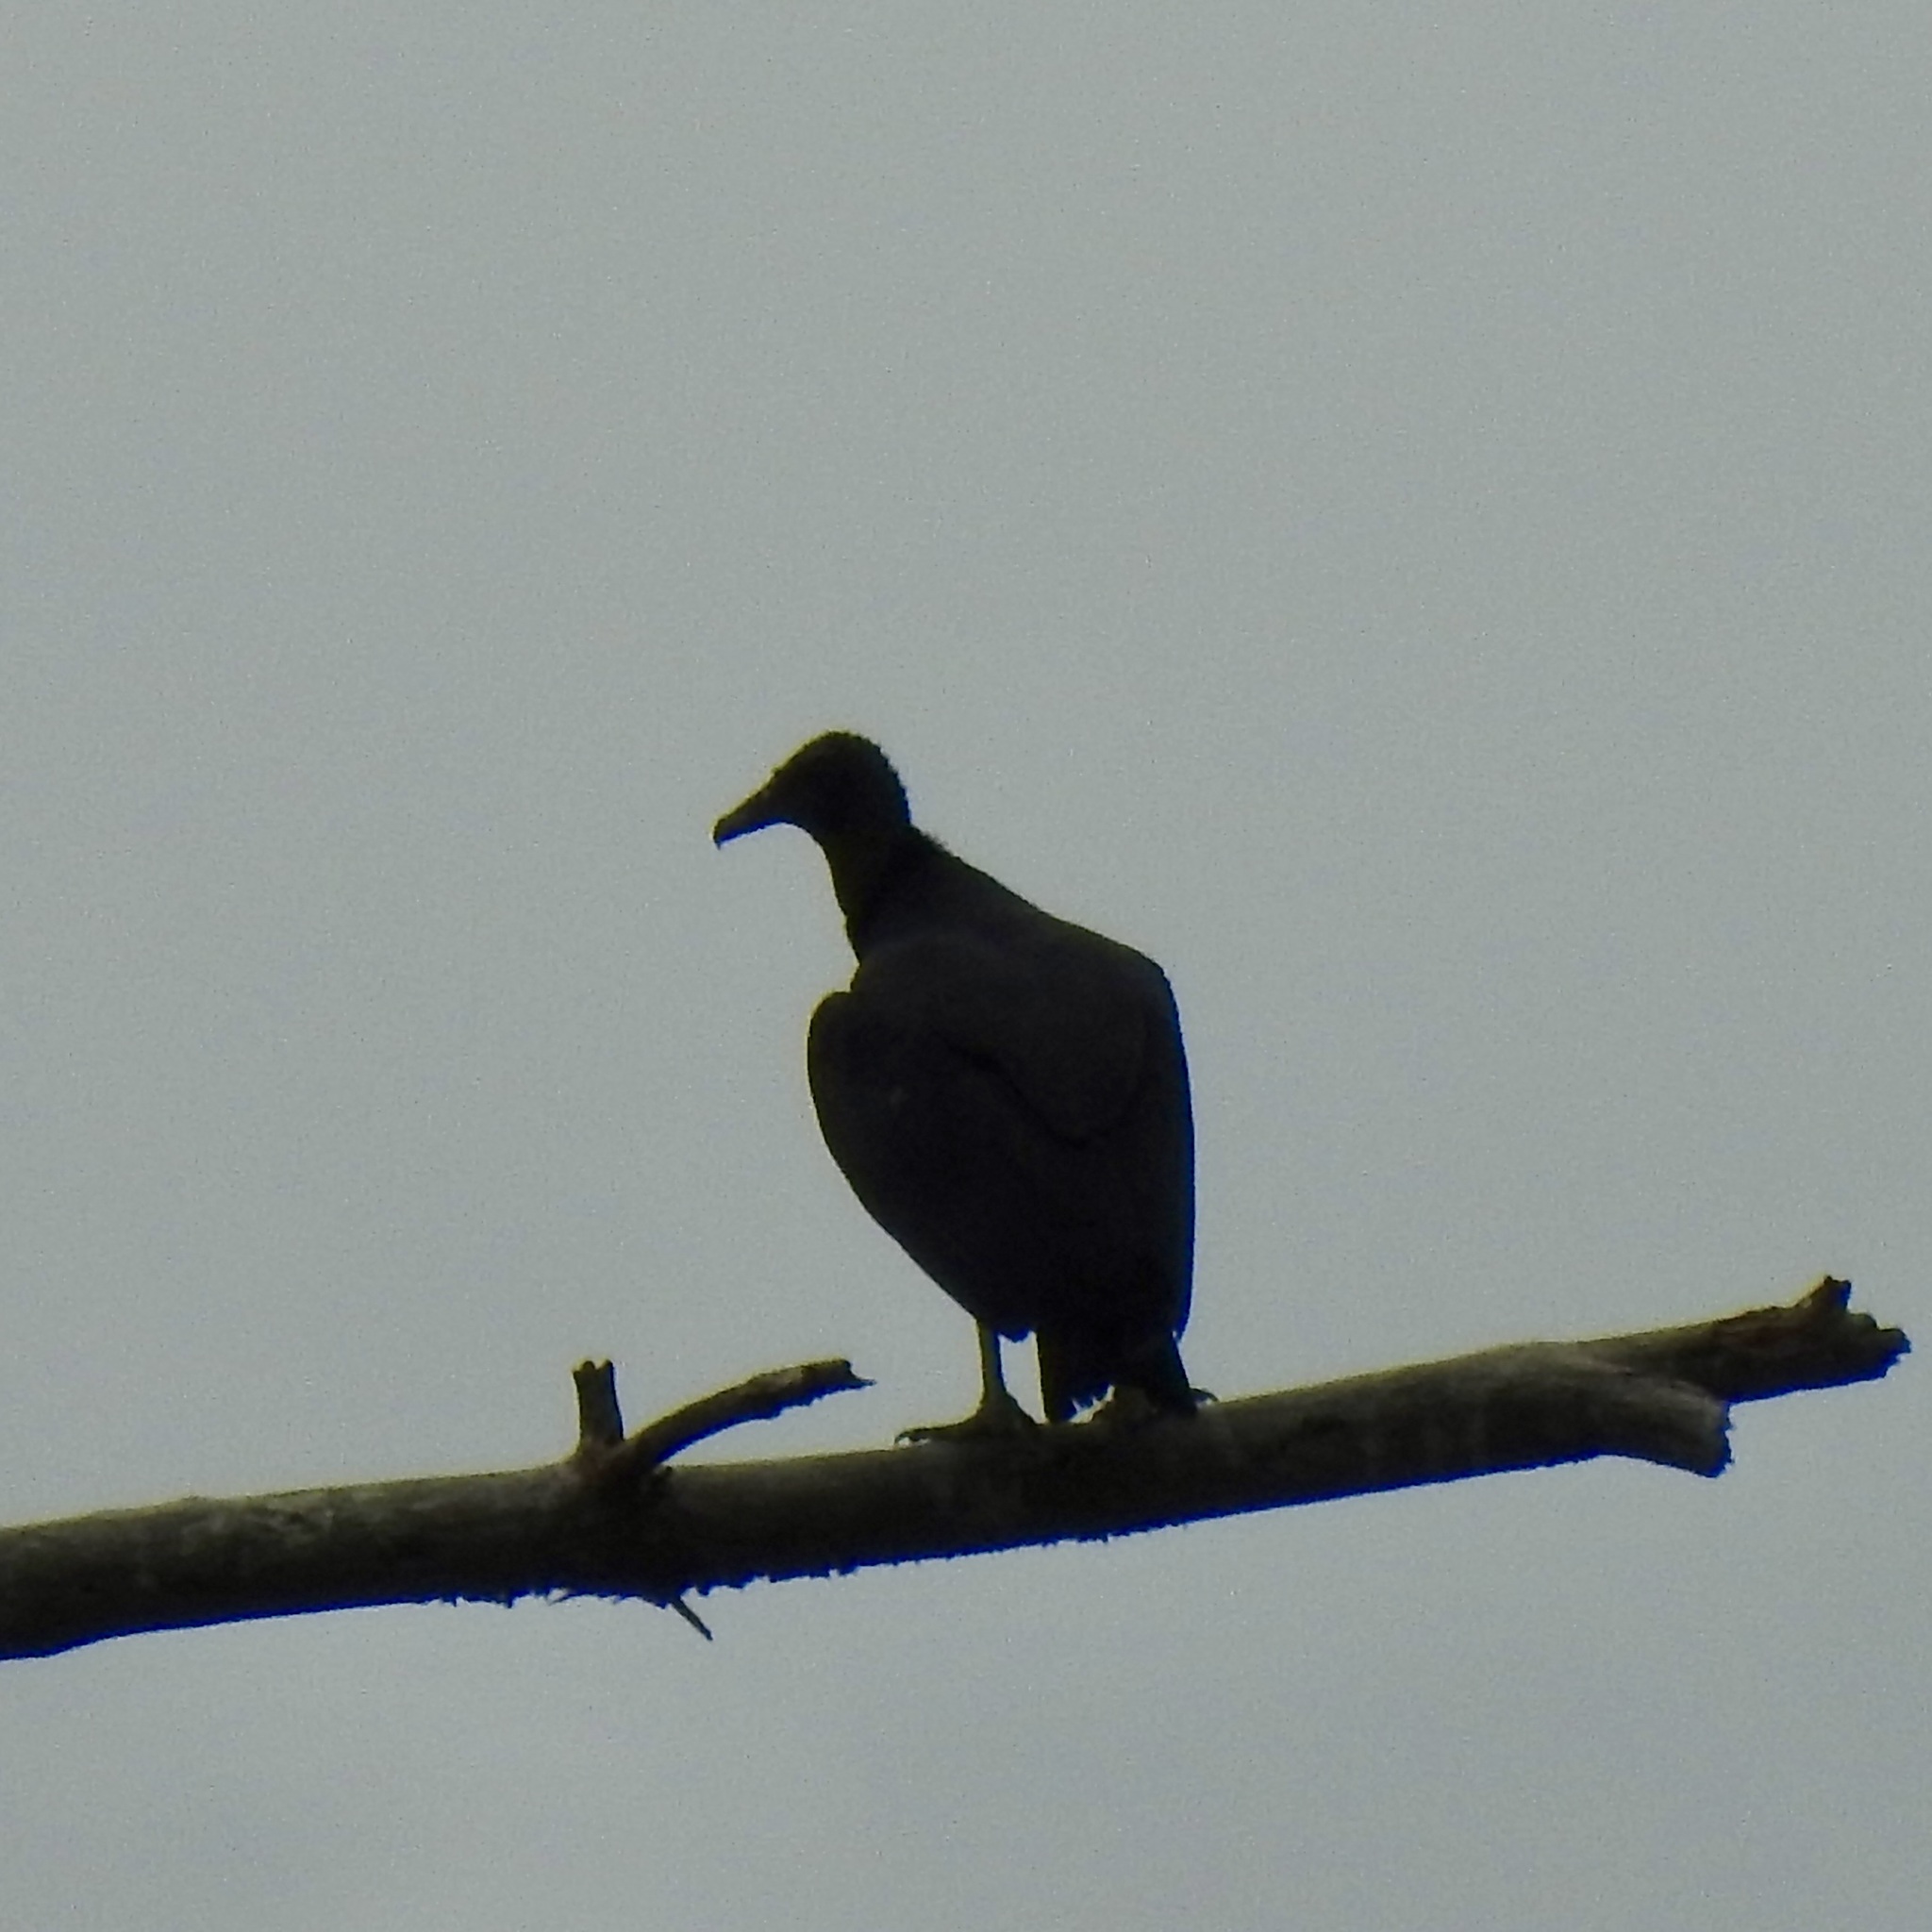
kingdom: Animalia
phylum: Chordata
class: Aves
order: Accipitriformes
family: Cathartidae
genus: Coragyps
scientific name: Coragyps atratus
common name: Black vulture
